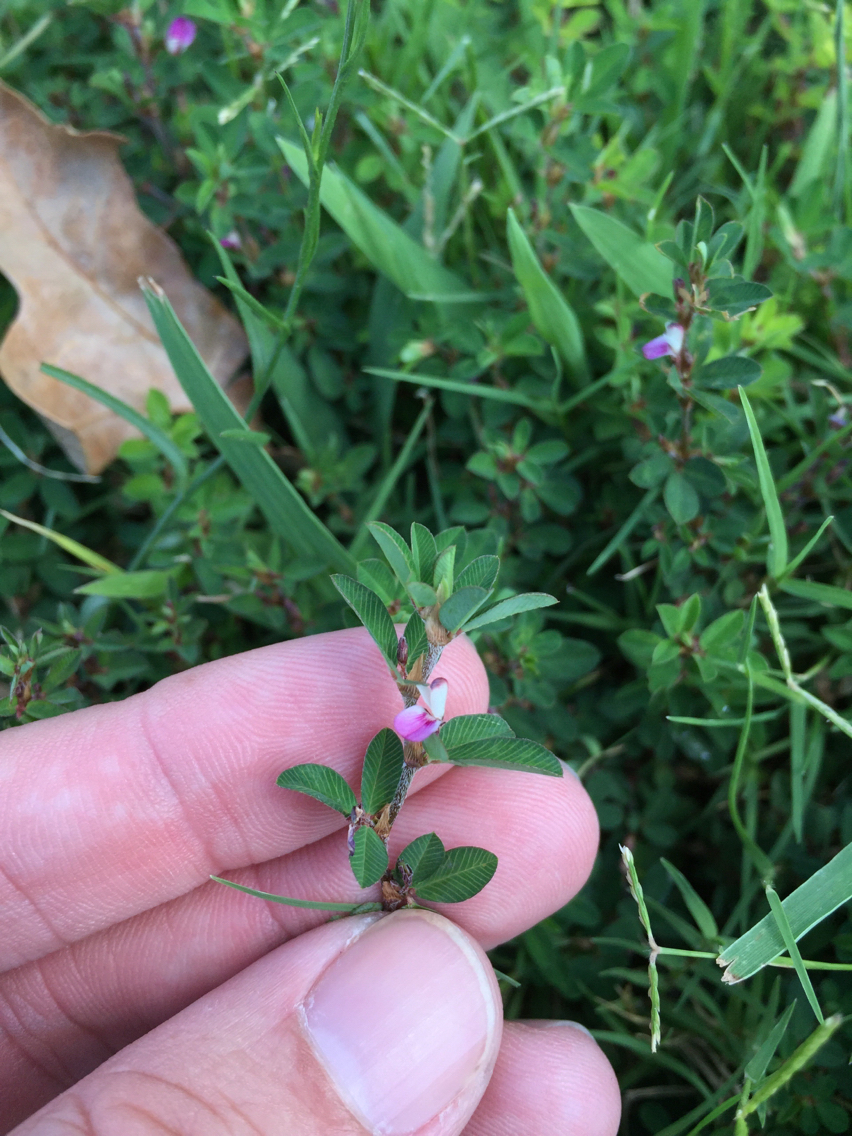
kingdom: Plantae
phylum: Tracheophyta
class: Magnoliopsida
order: Fabales
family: Fabaceae
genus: Kummerowia
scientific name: Kummerowia striata
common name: Japanese clover
